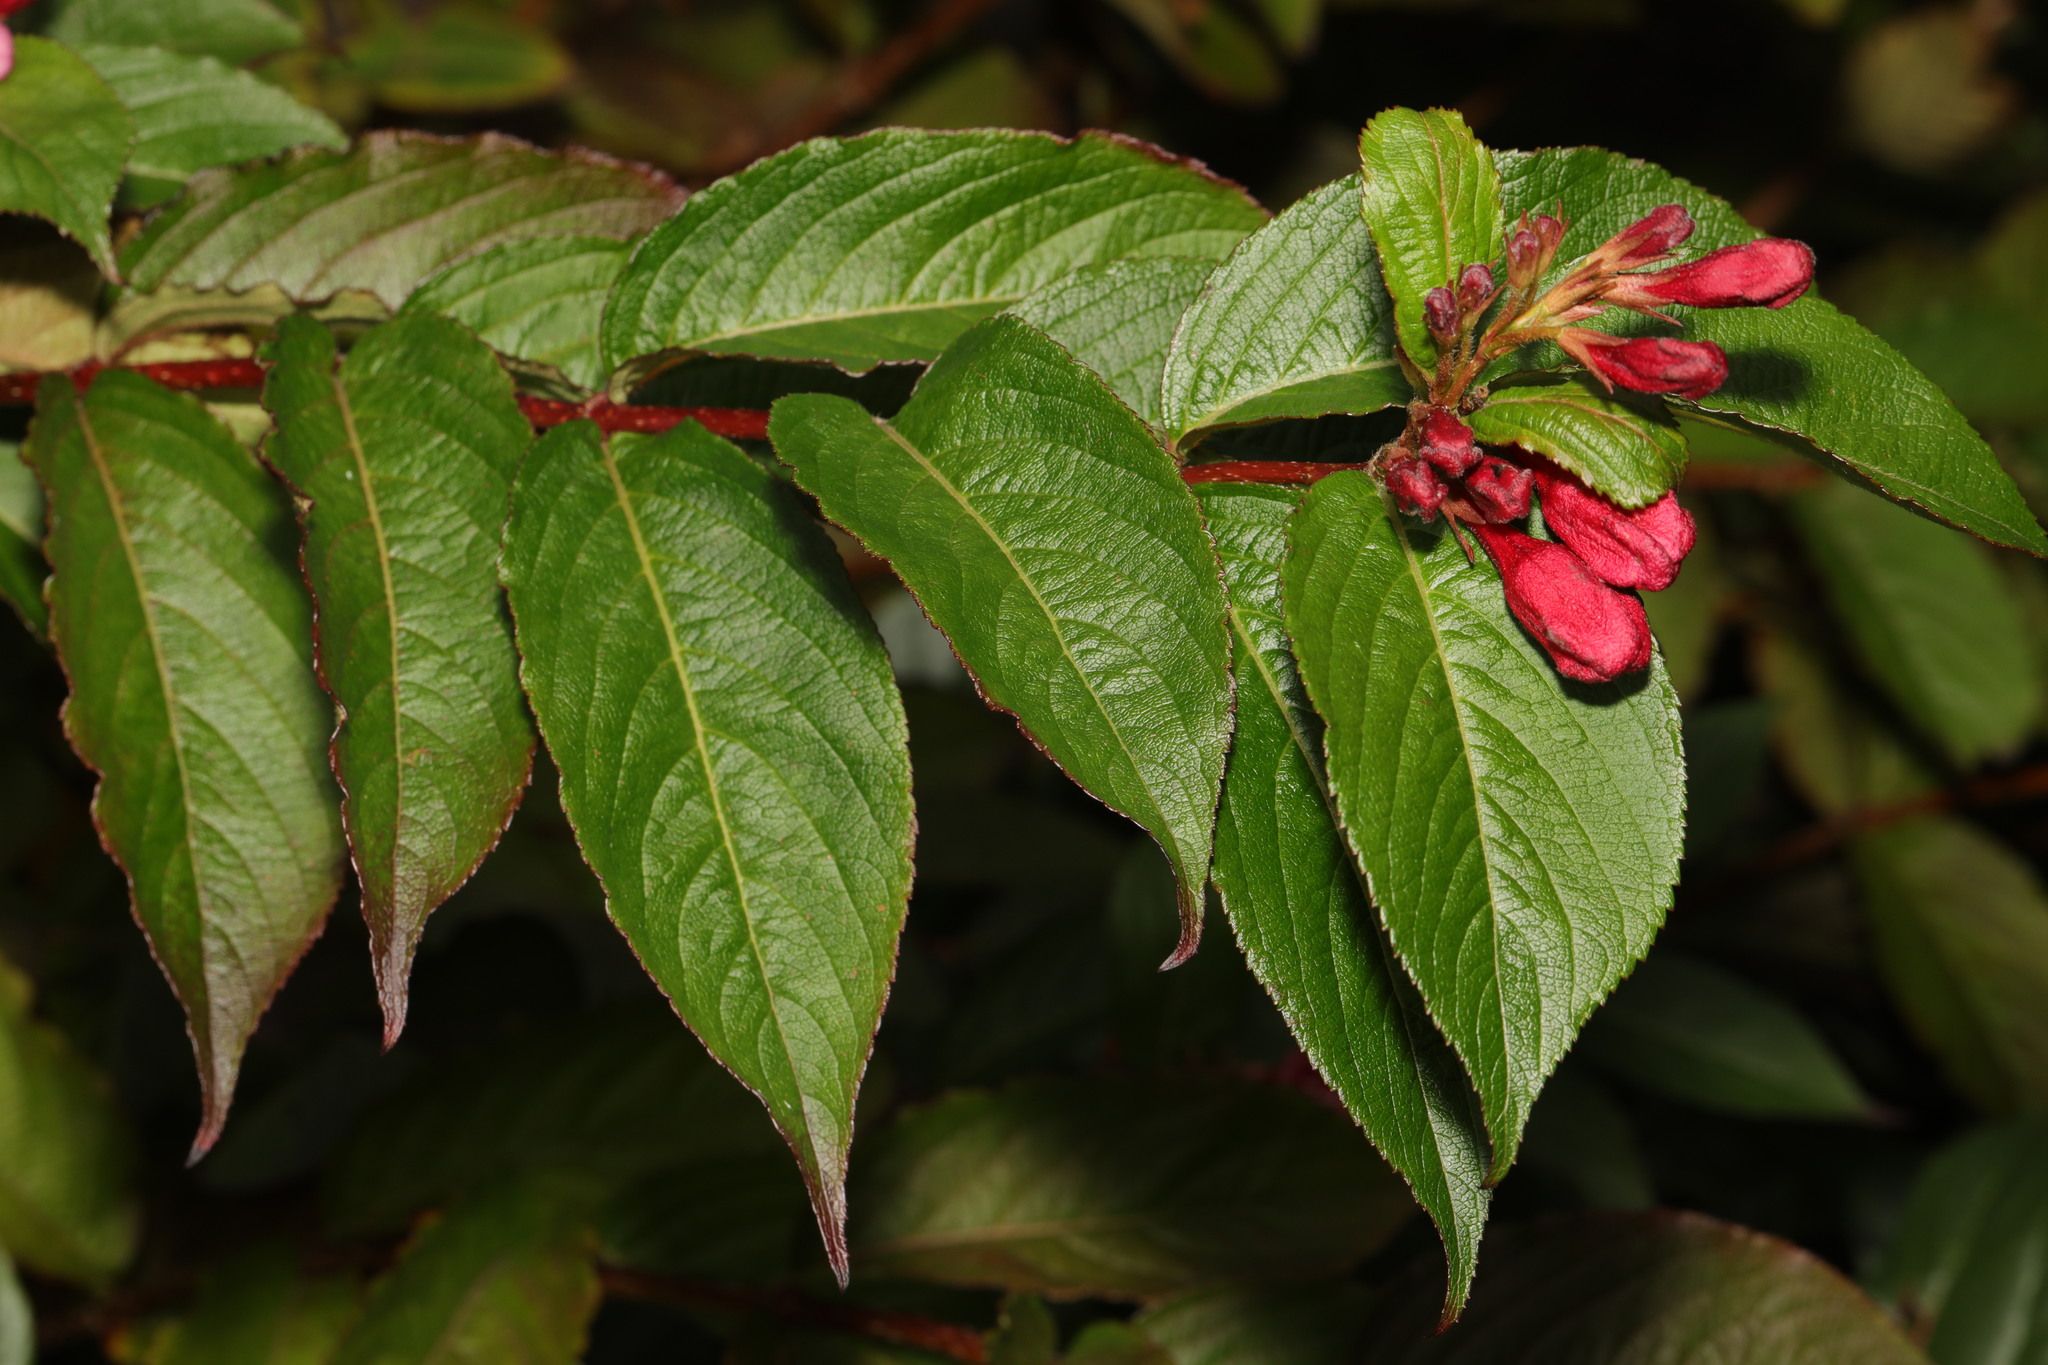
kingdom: Plantae
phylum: Tracheophyta
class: Magnoliopsida
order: Dipsacales
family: Caprifoliaceae
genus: Weigela
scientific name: Weigela florida
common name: Weigelia
